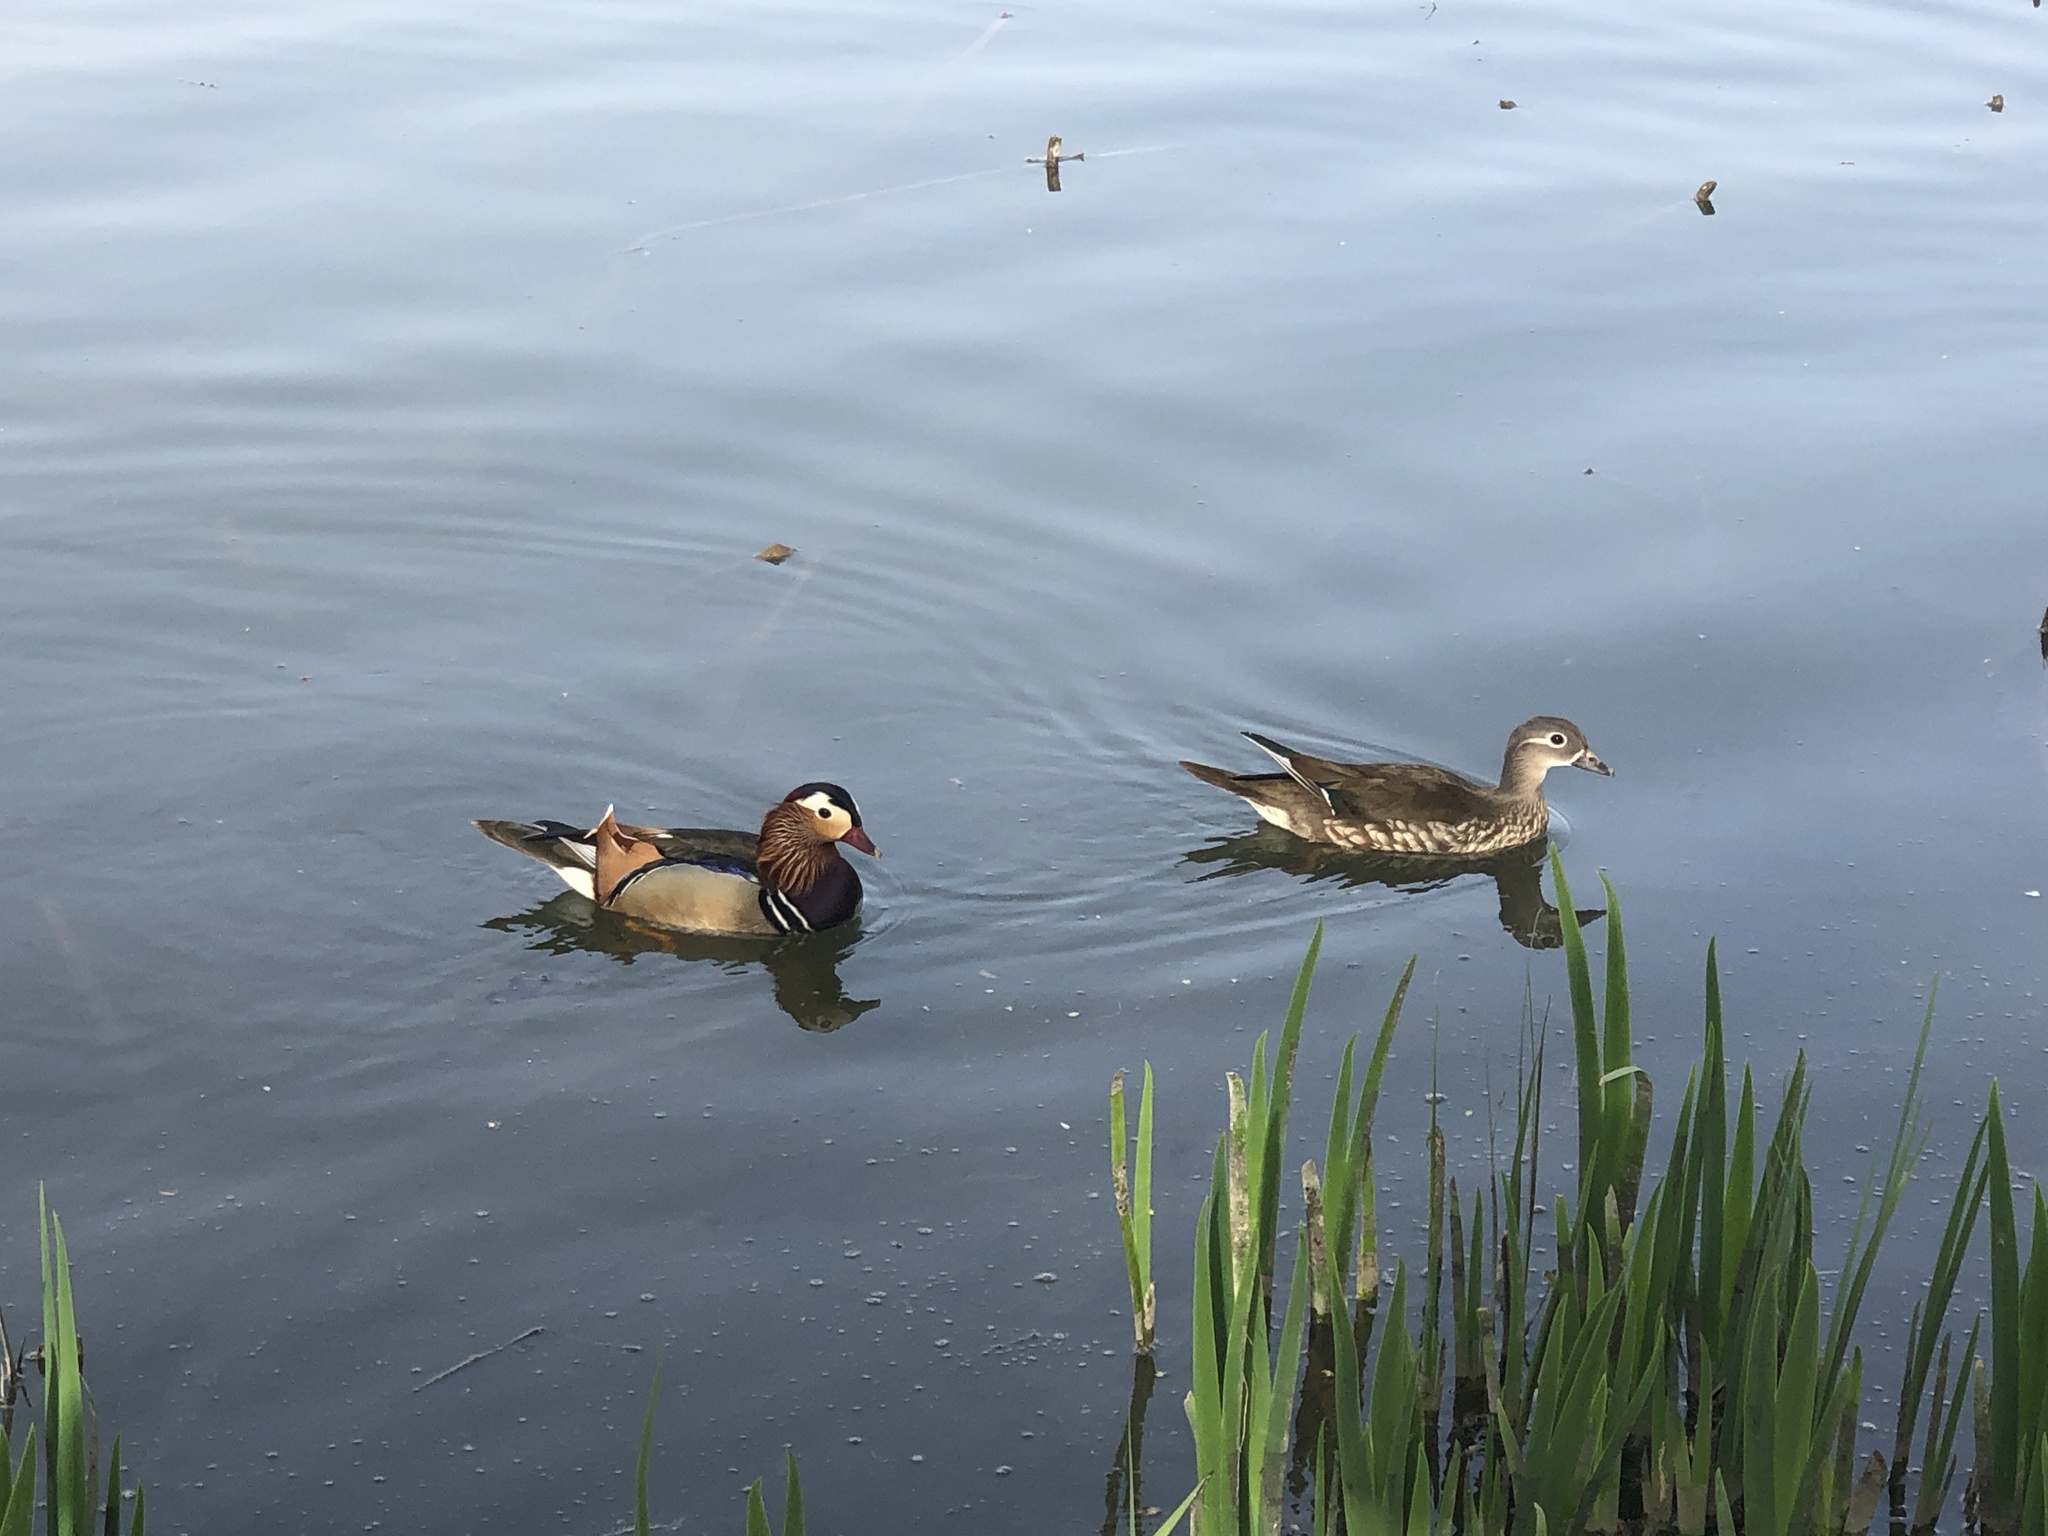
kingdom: Animalia
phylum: Chordata
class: Aves
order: Anseriformes
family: Anatidae
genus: Aix
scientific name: Aix galericulata
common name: Mandarin duck
